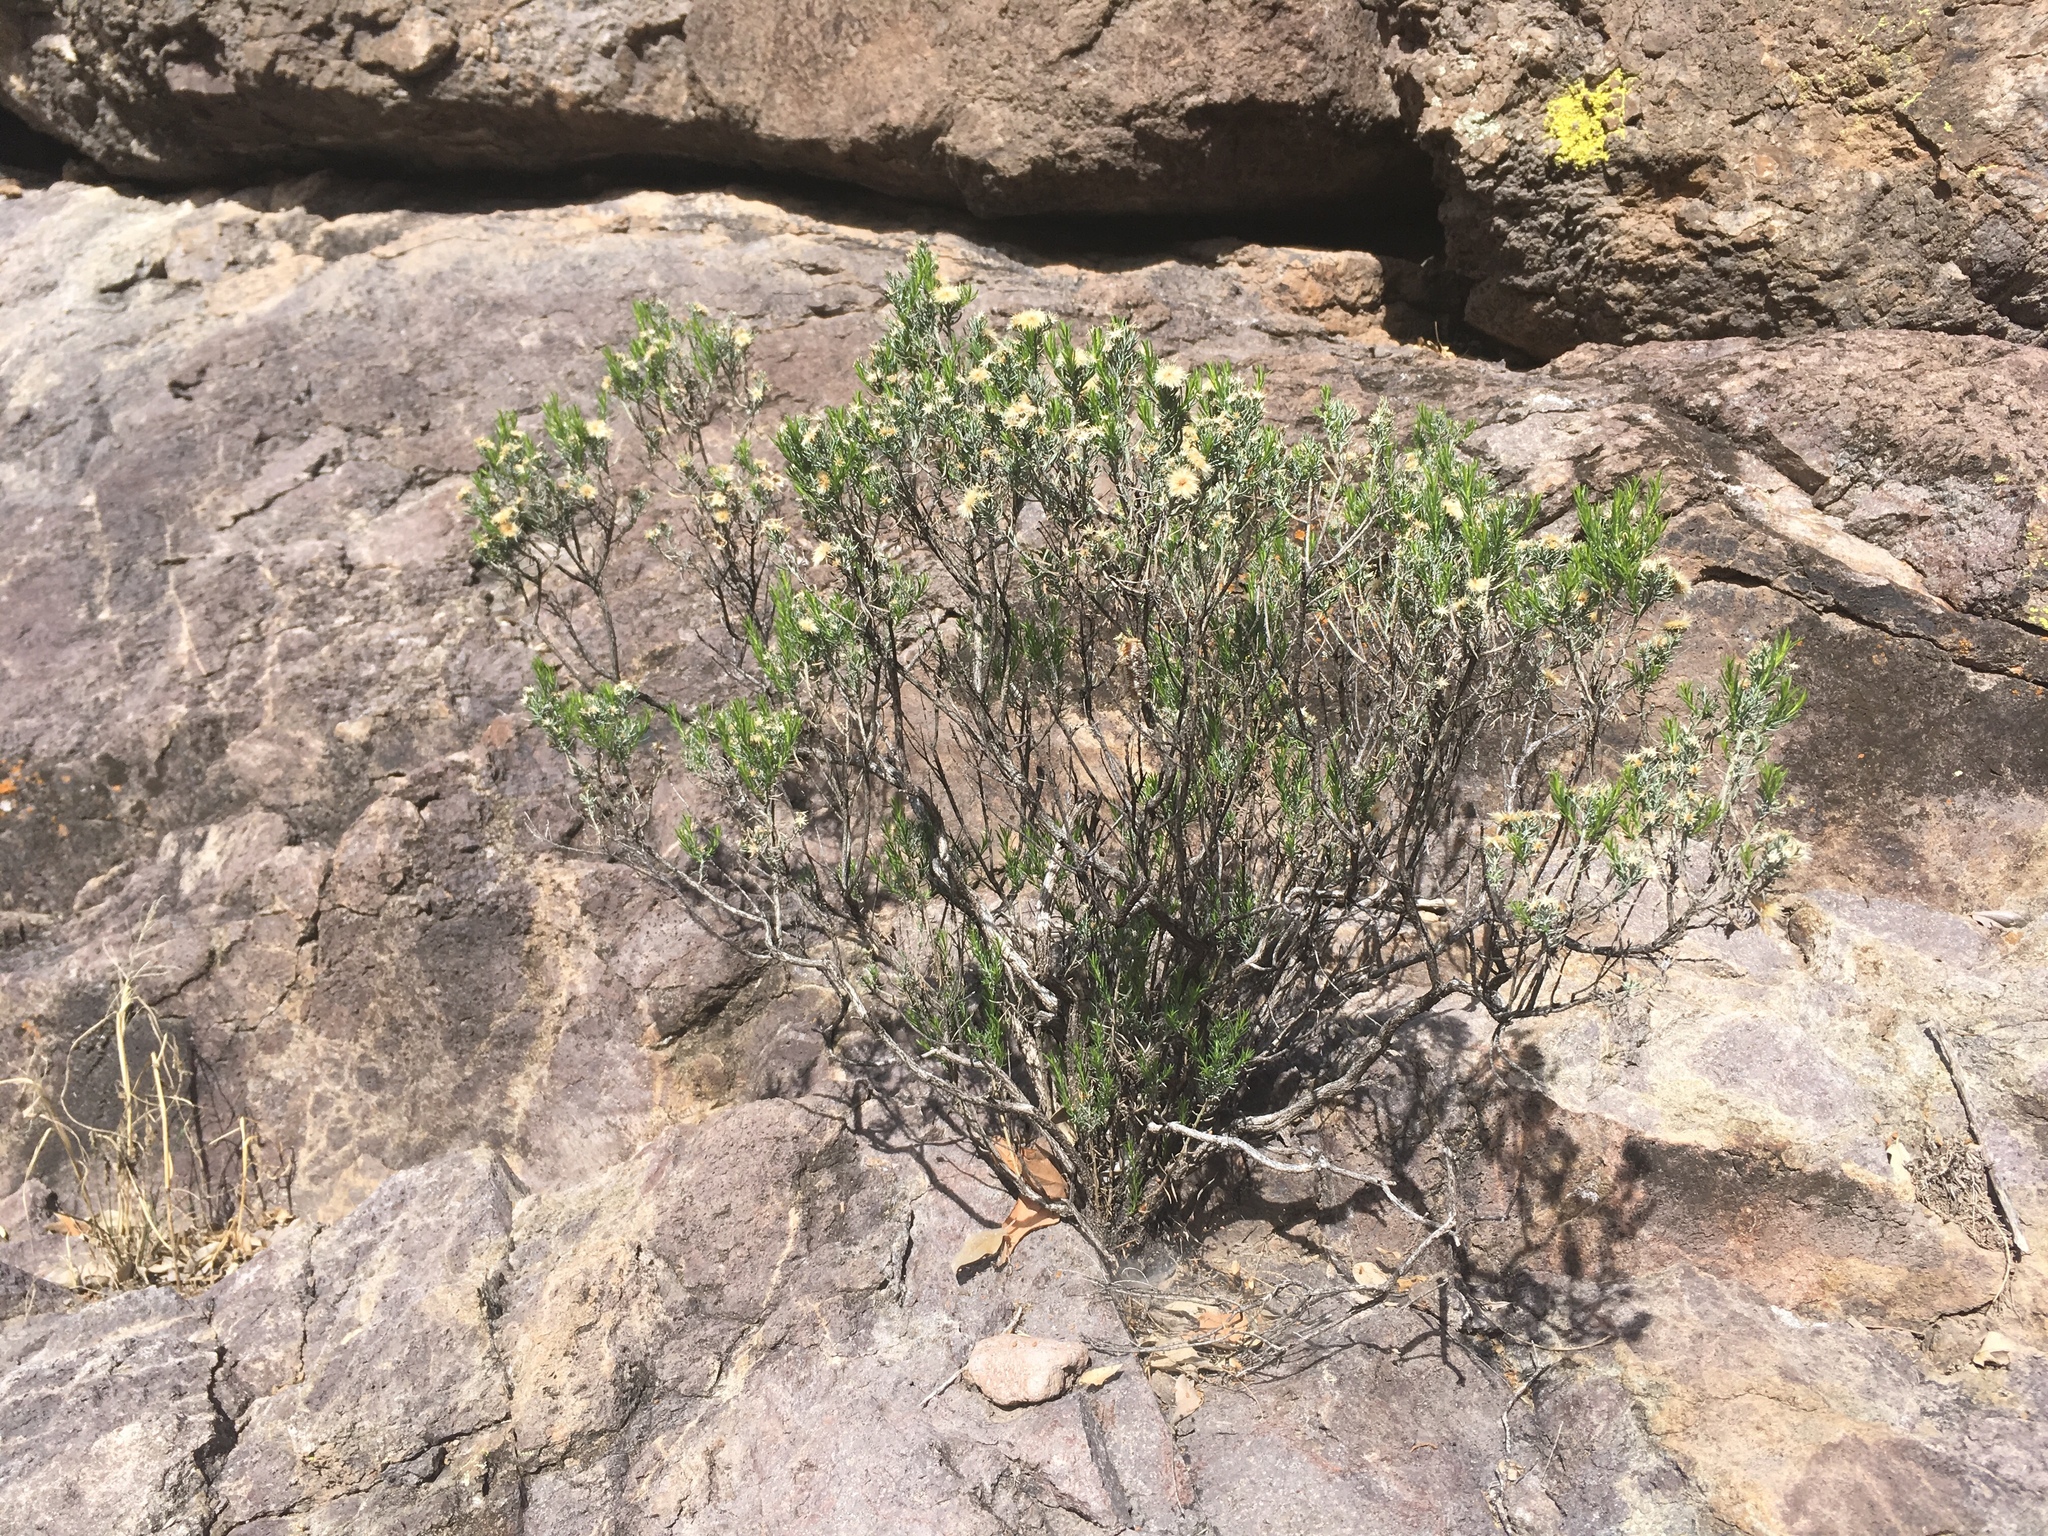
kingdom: Plantae
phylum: Tracheophyta
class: Magnoliopsida
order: Asterales
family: Asteraceae
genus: Ericameria
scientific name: Ericameria laricifolia
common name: Turpentine-bush
